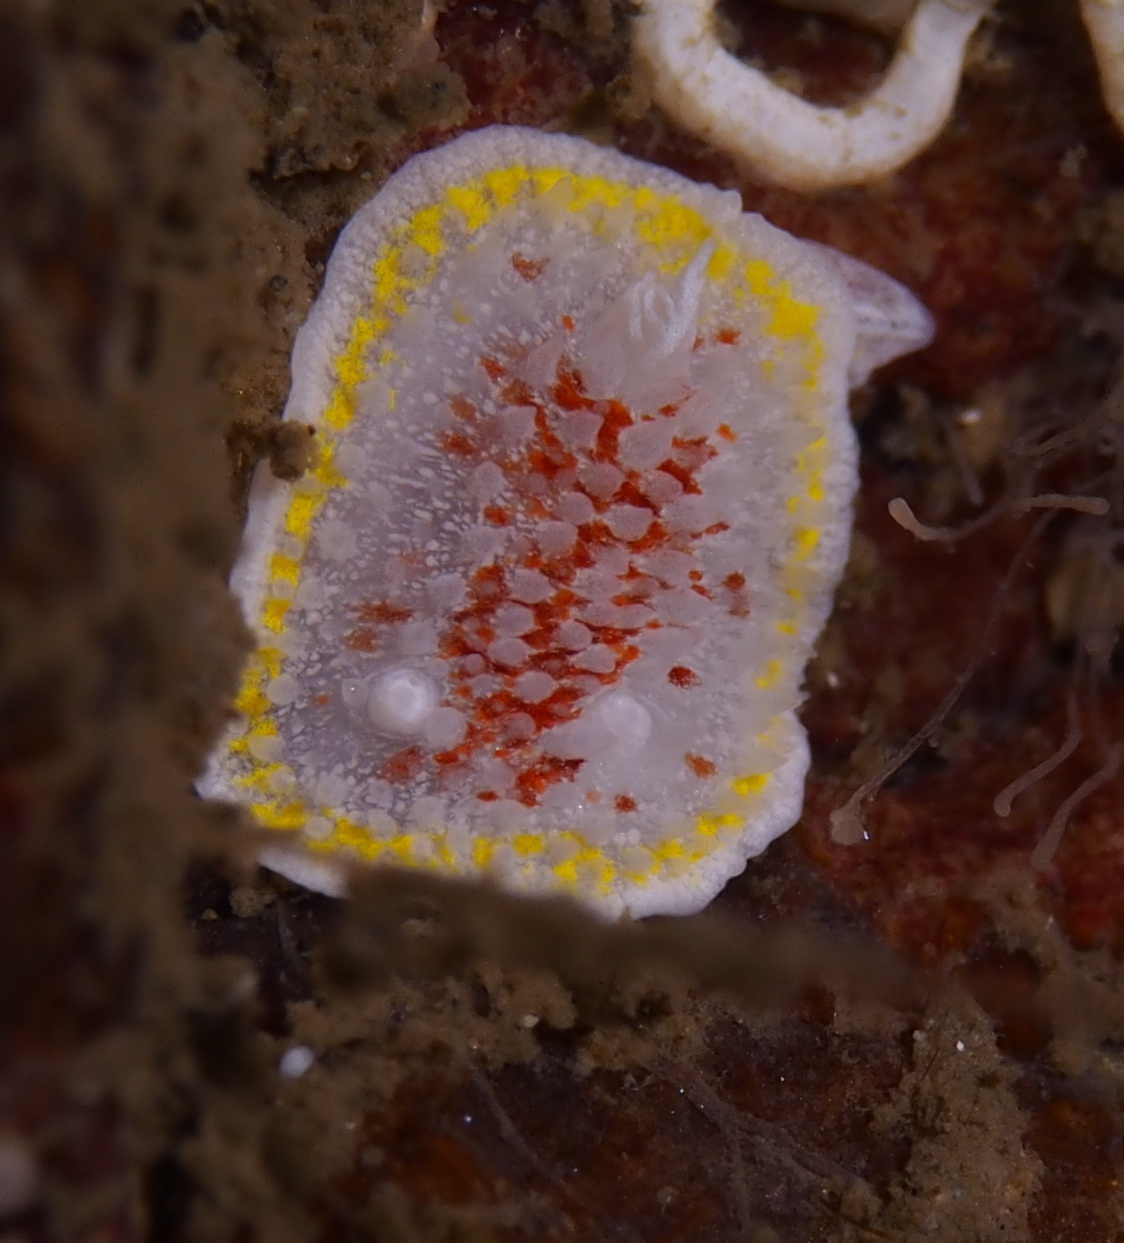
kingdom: Animalia
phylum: Mollusca
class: Gastropoda
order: Nudibranchia
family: Calycidorididae
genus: Diaphorodoris
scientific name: Diaphorodoris luteocincta
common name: Fried egg nudibranch
